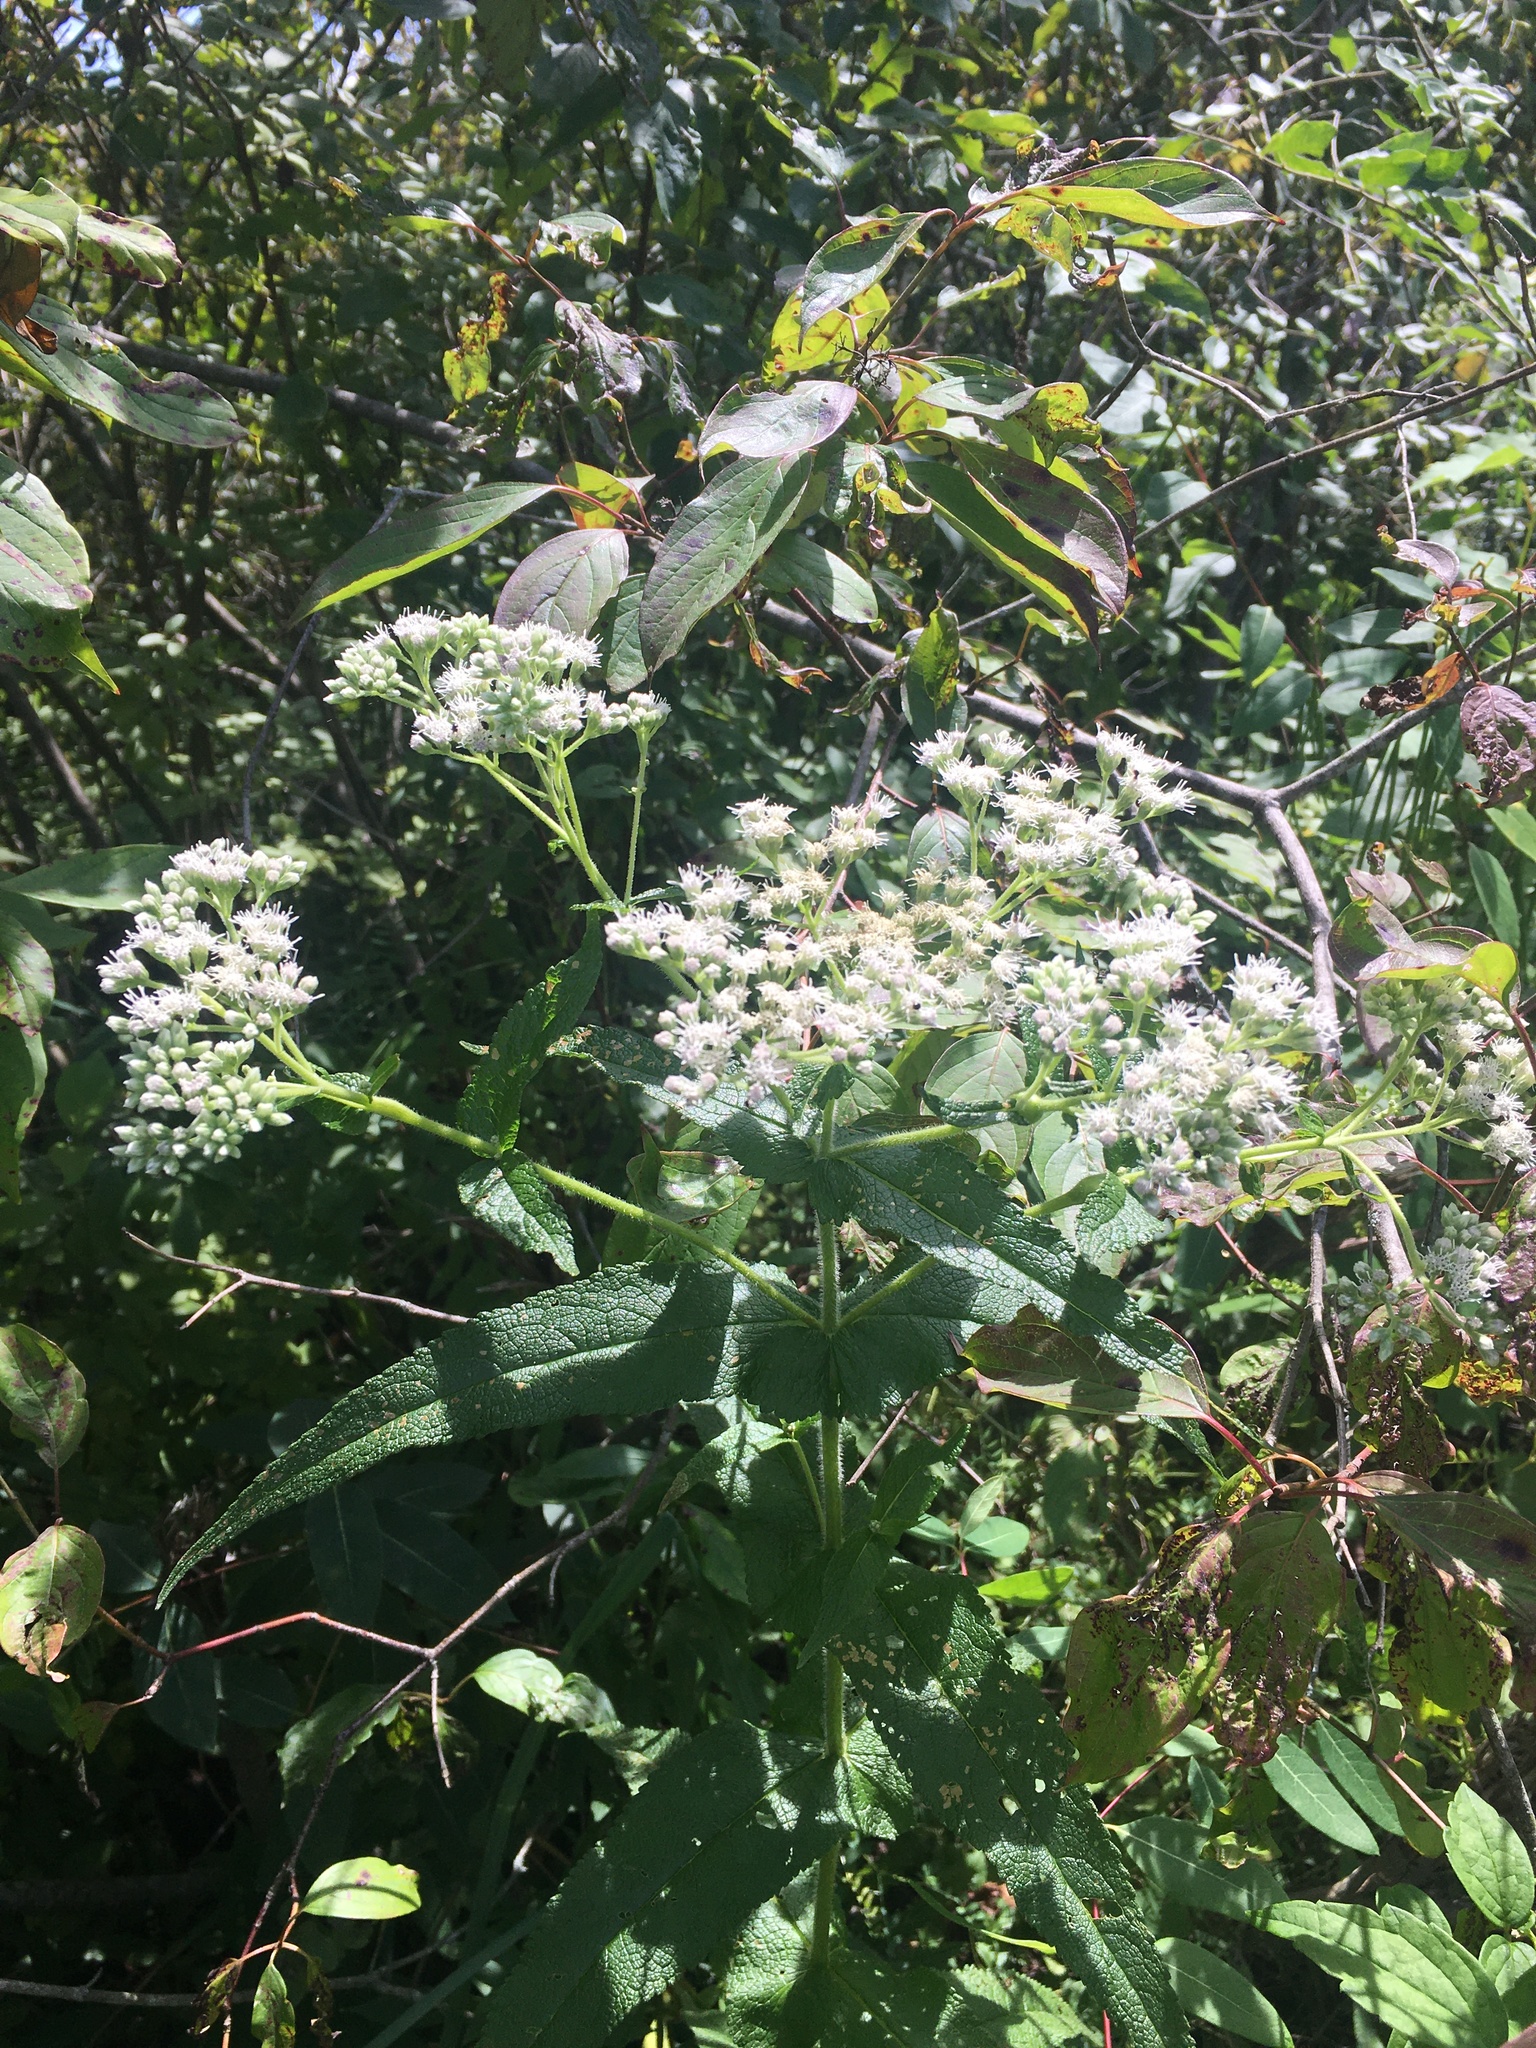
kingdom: Plantae
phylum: Tracheophyta
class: Magnoliopsida
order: Asterales
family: Asteraceae
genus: Eupatorium
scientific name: Eupatorium perfoliatum
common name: Boneset
